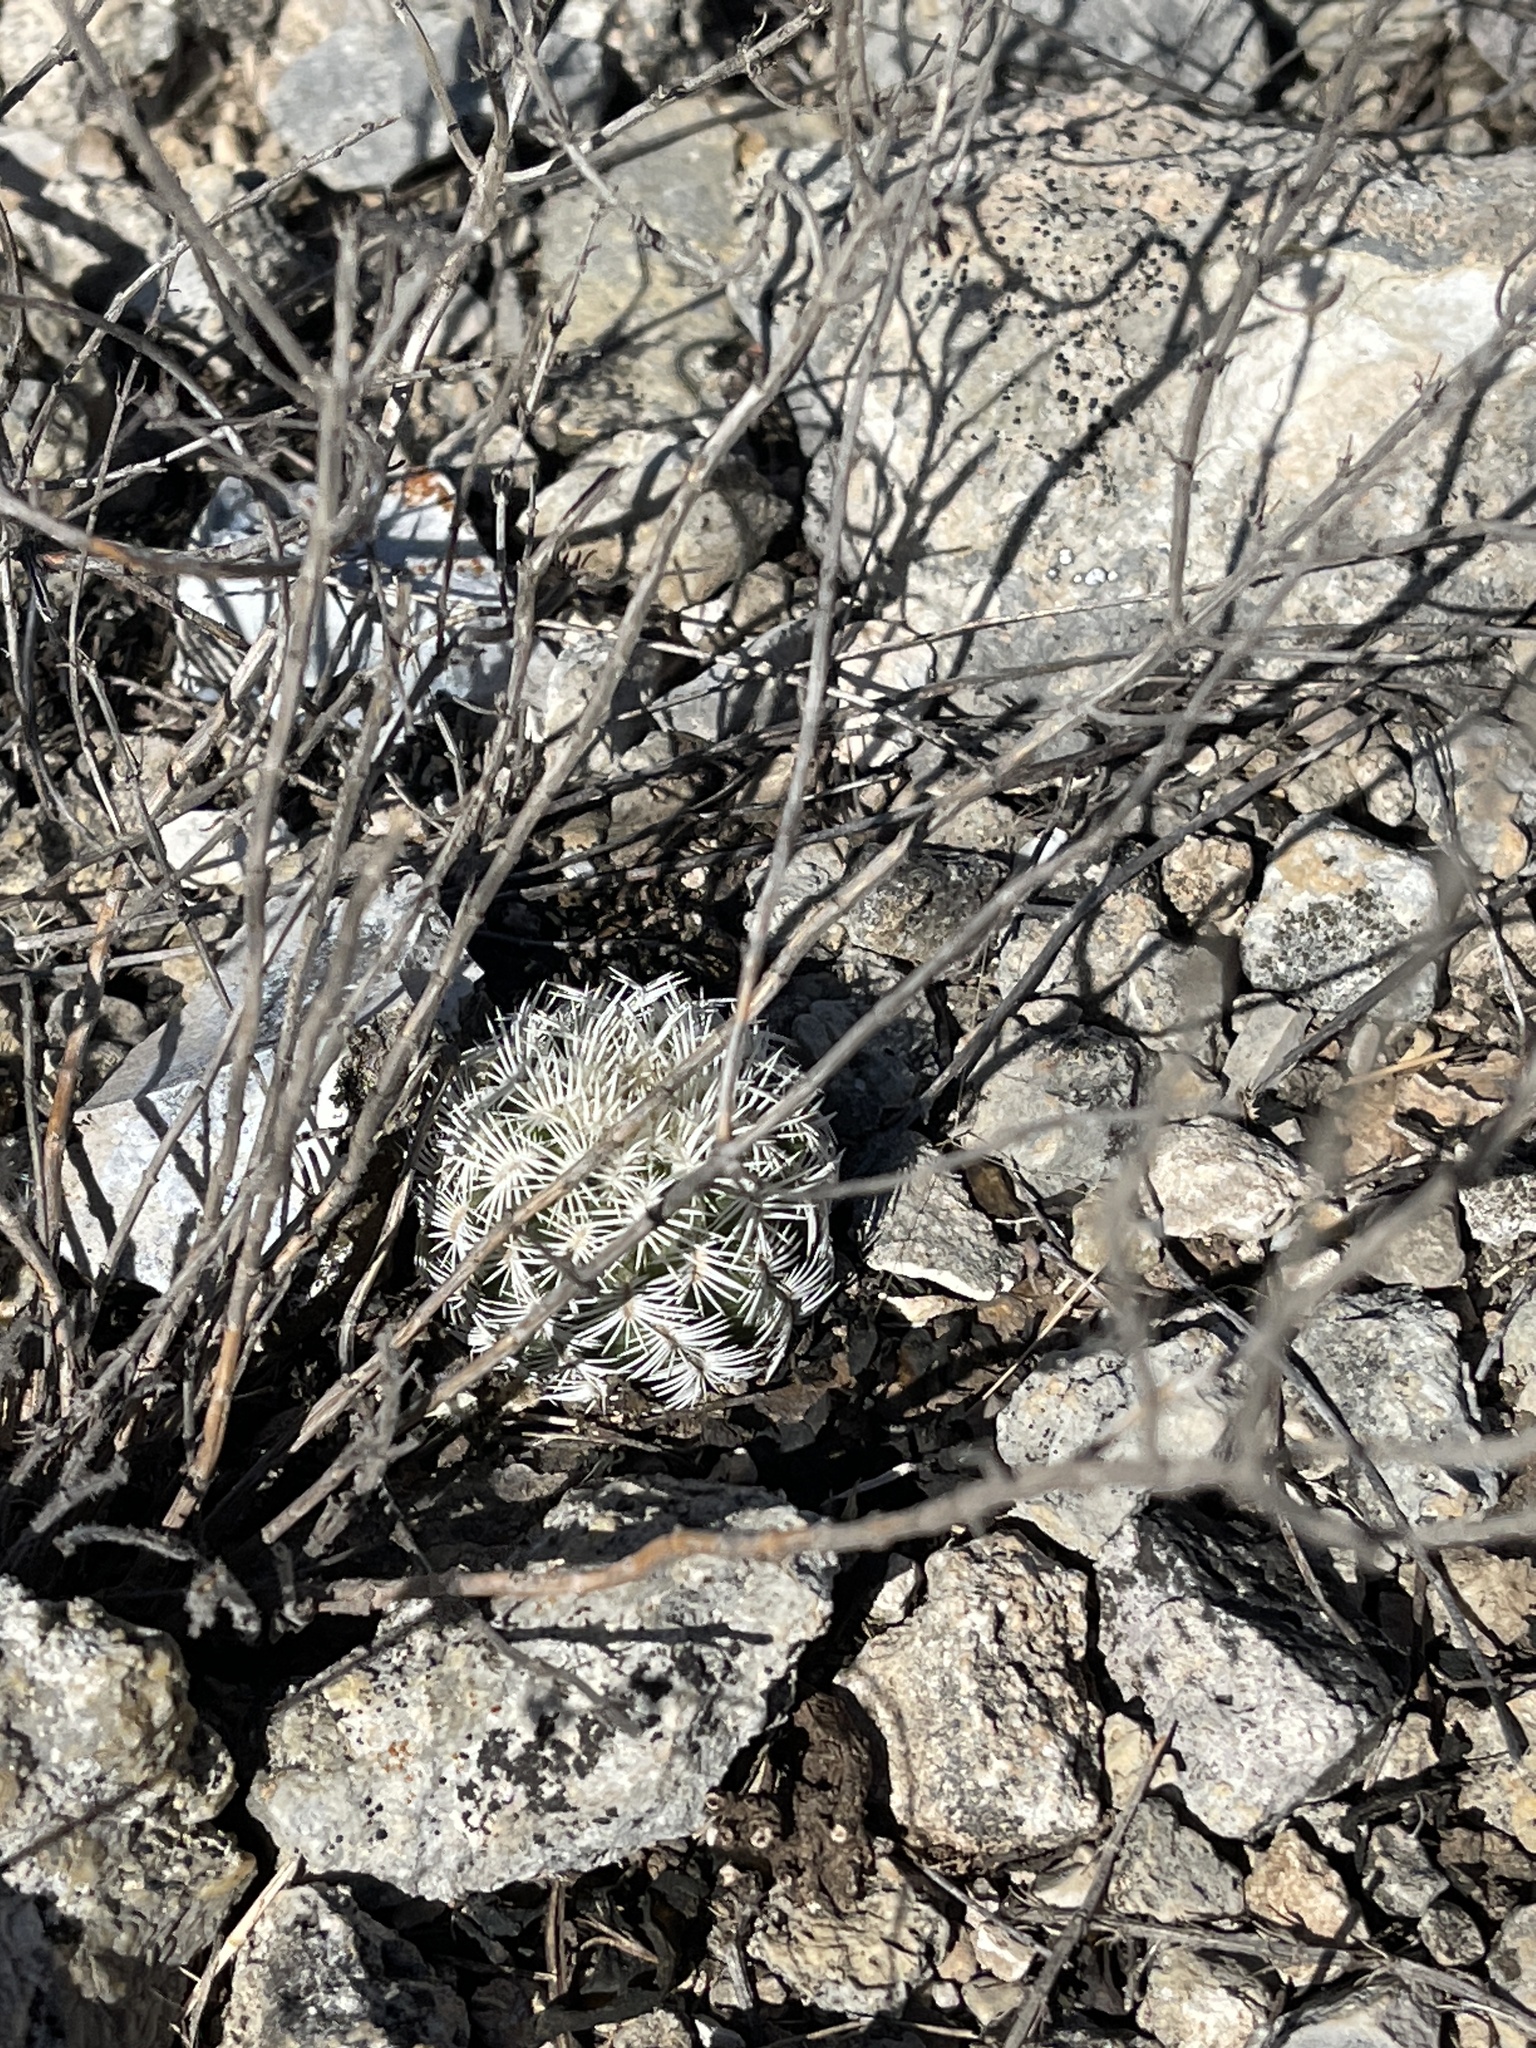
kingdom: Plantae
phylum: Tracheophyta
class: Magnoliopsida
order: Caryophyllales
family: Cactaceae
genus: Echinocereus
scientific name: Echinocereus reichenbachii
